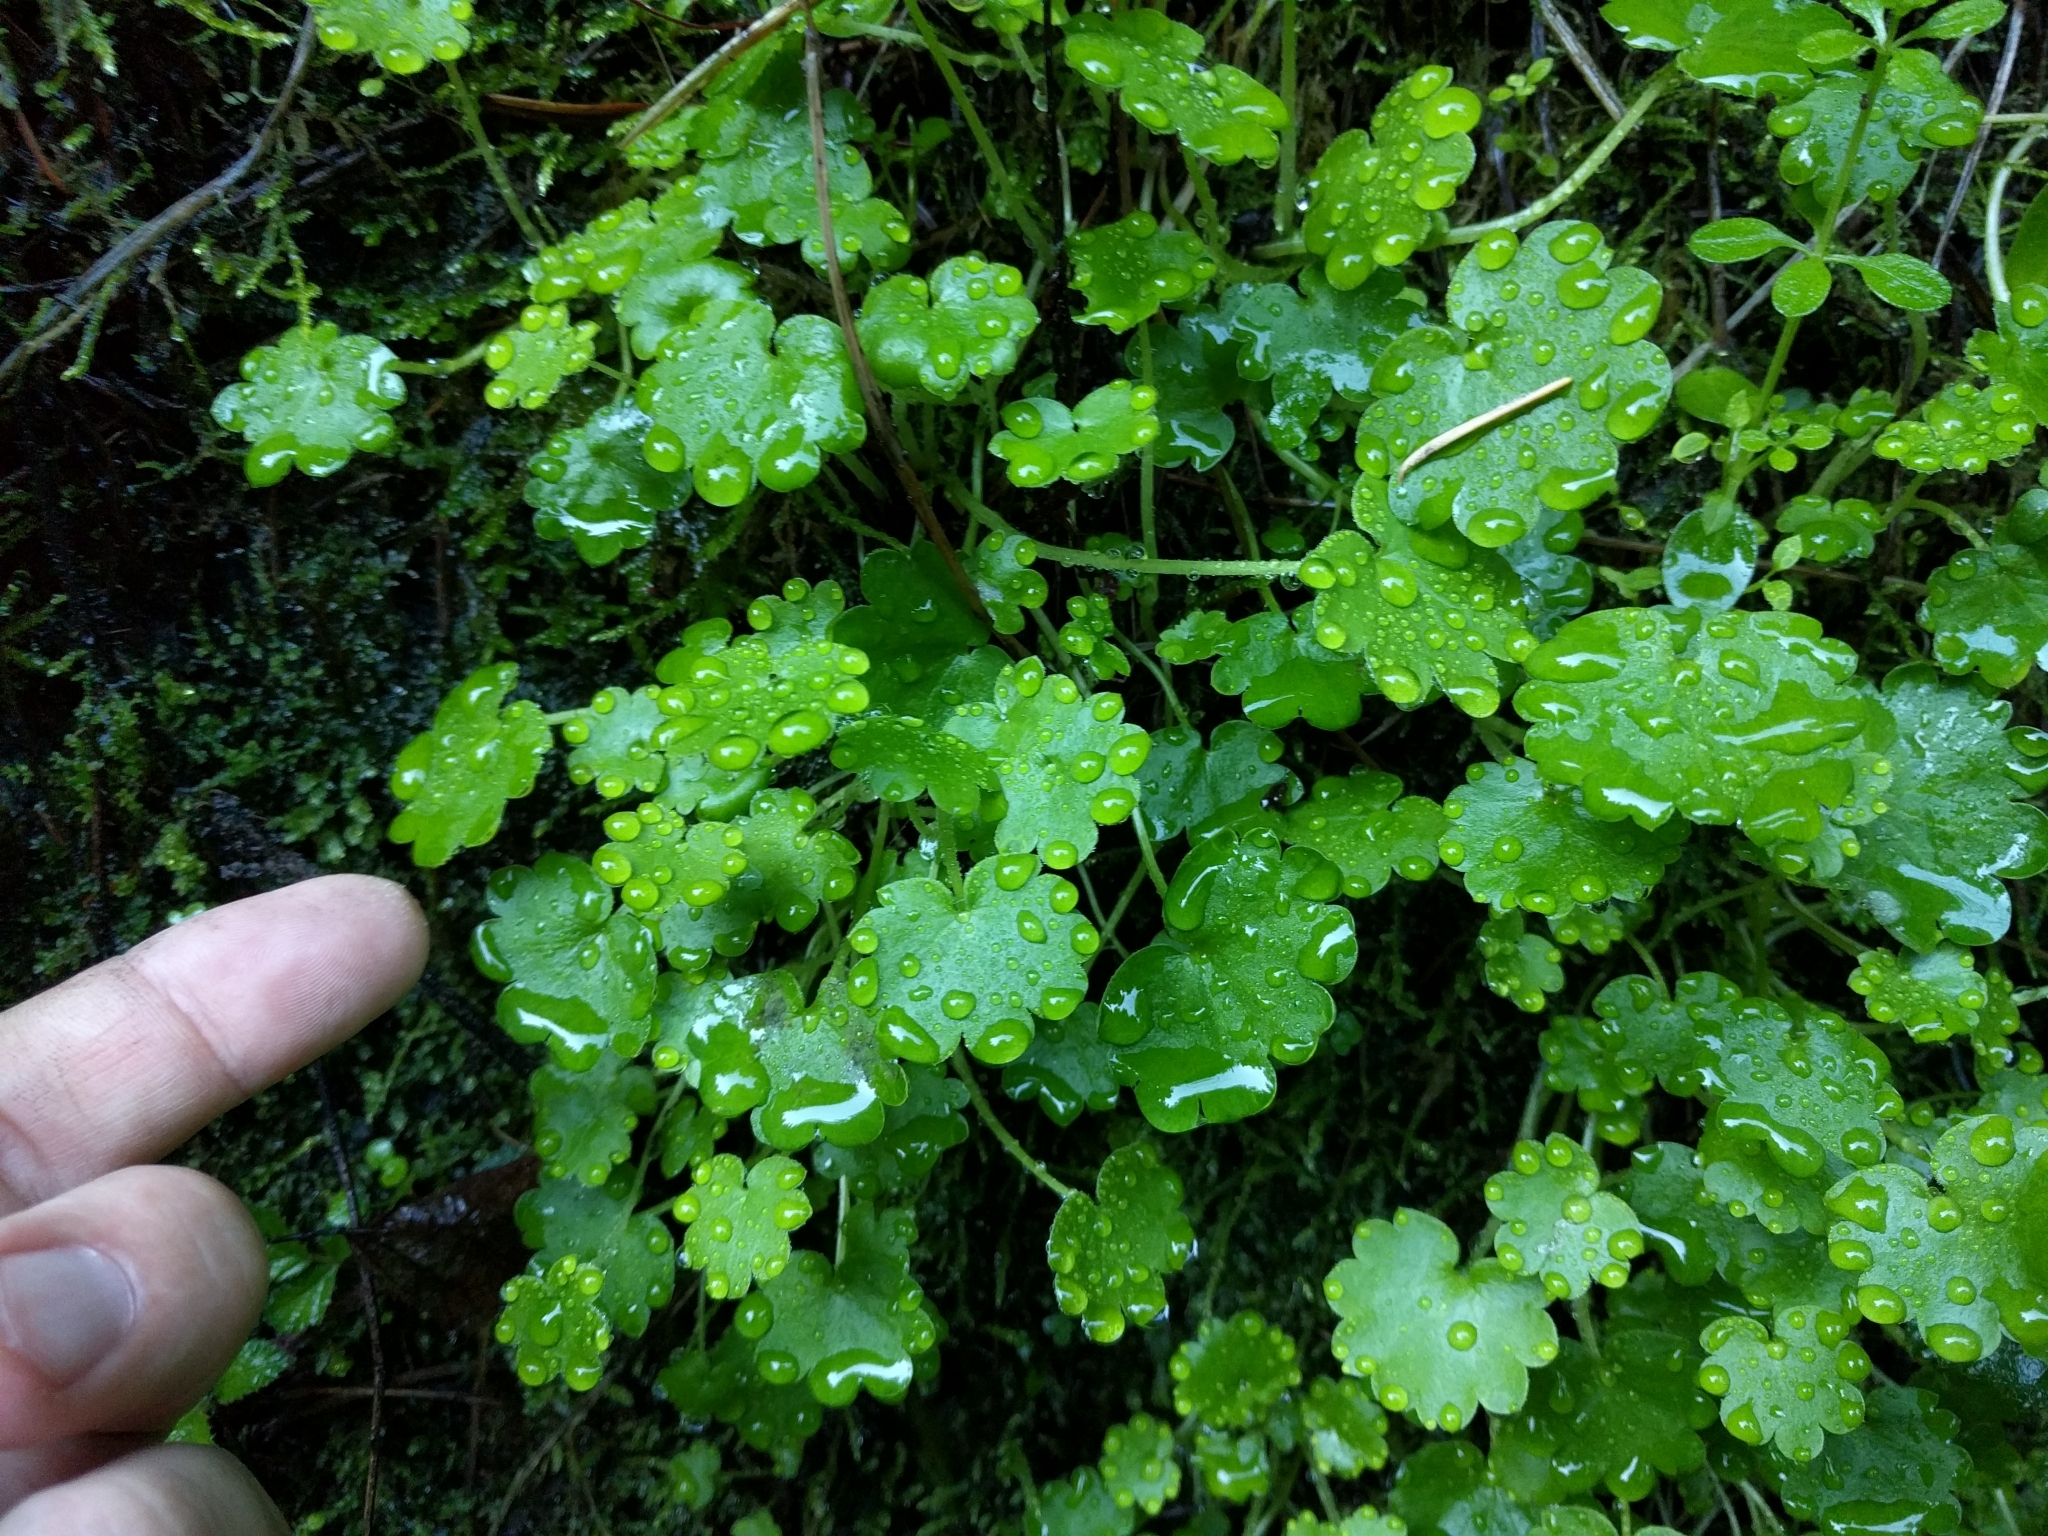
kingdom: Plantae
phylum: Tracheophyta
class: Magnoliopsida
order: Boraginales
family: Hydrophyllaceae
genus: Romanzoffia
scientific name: Romanzoffia californica
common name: California mistmaiden
